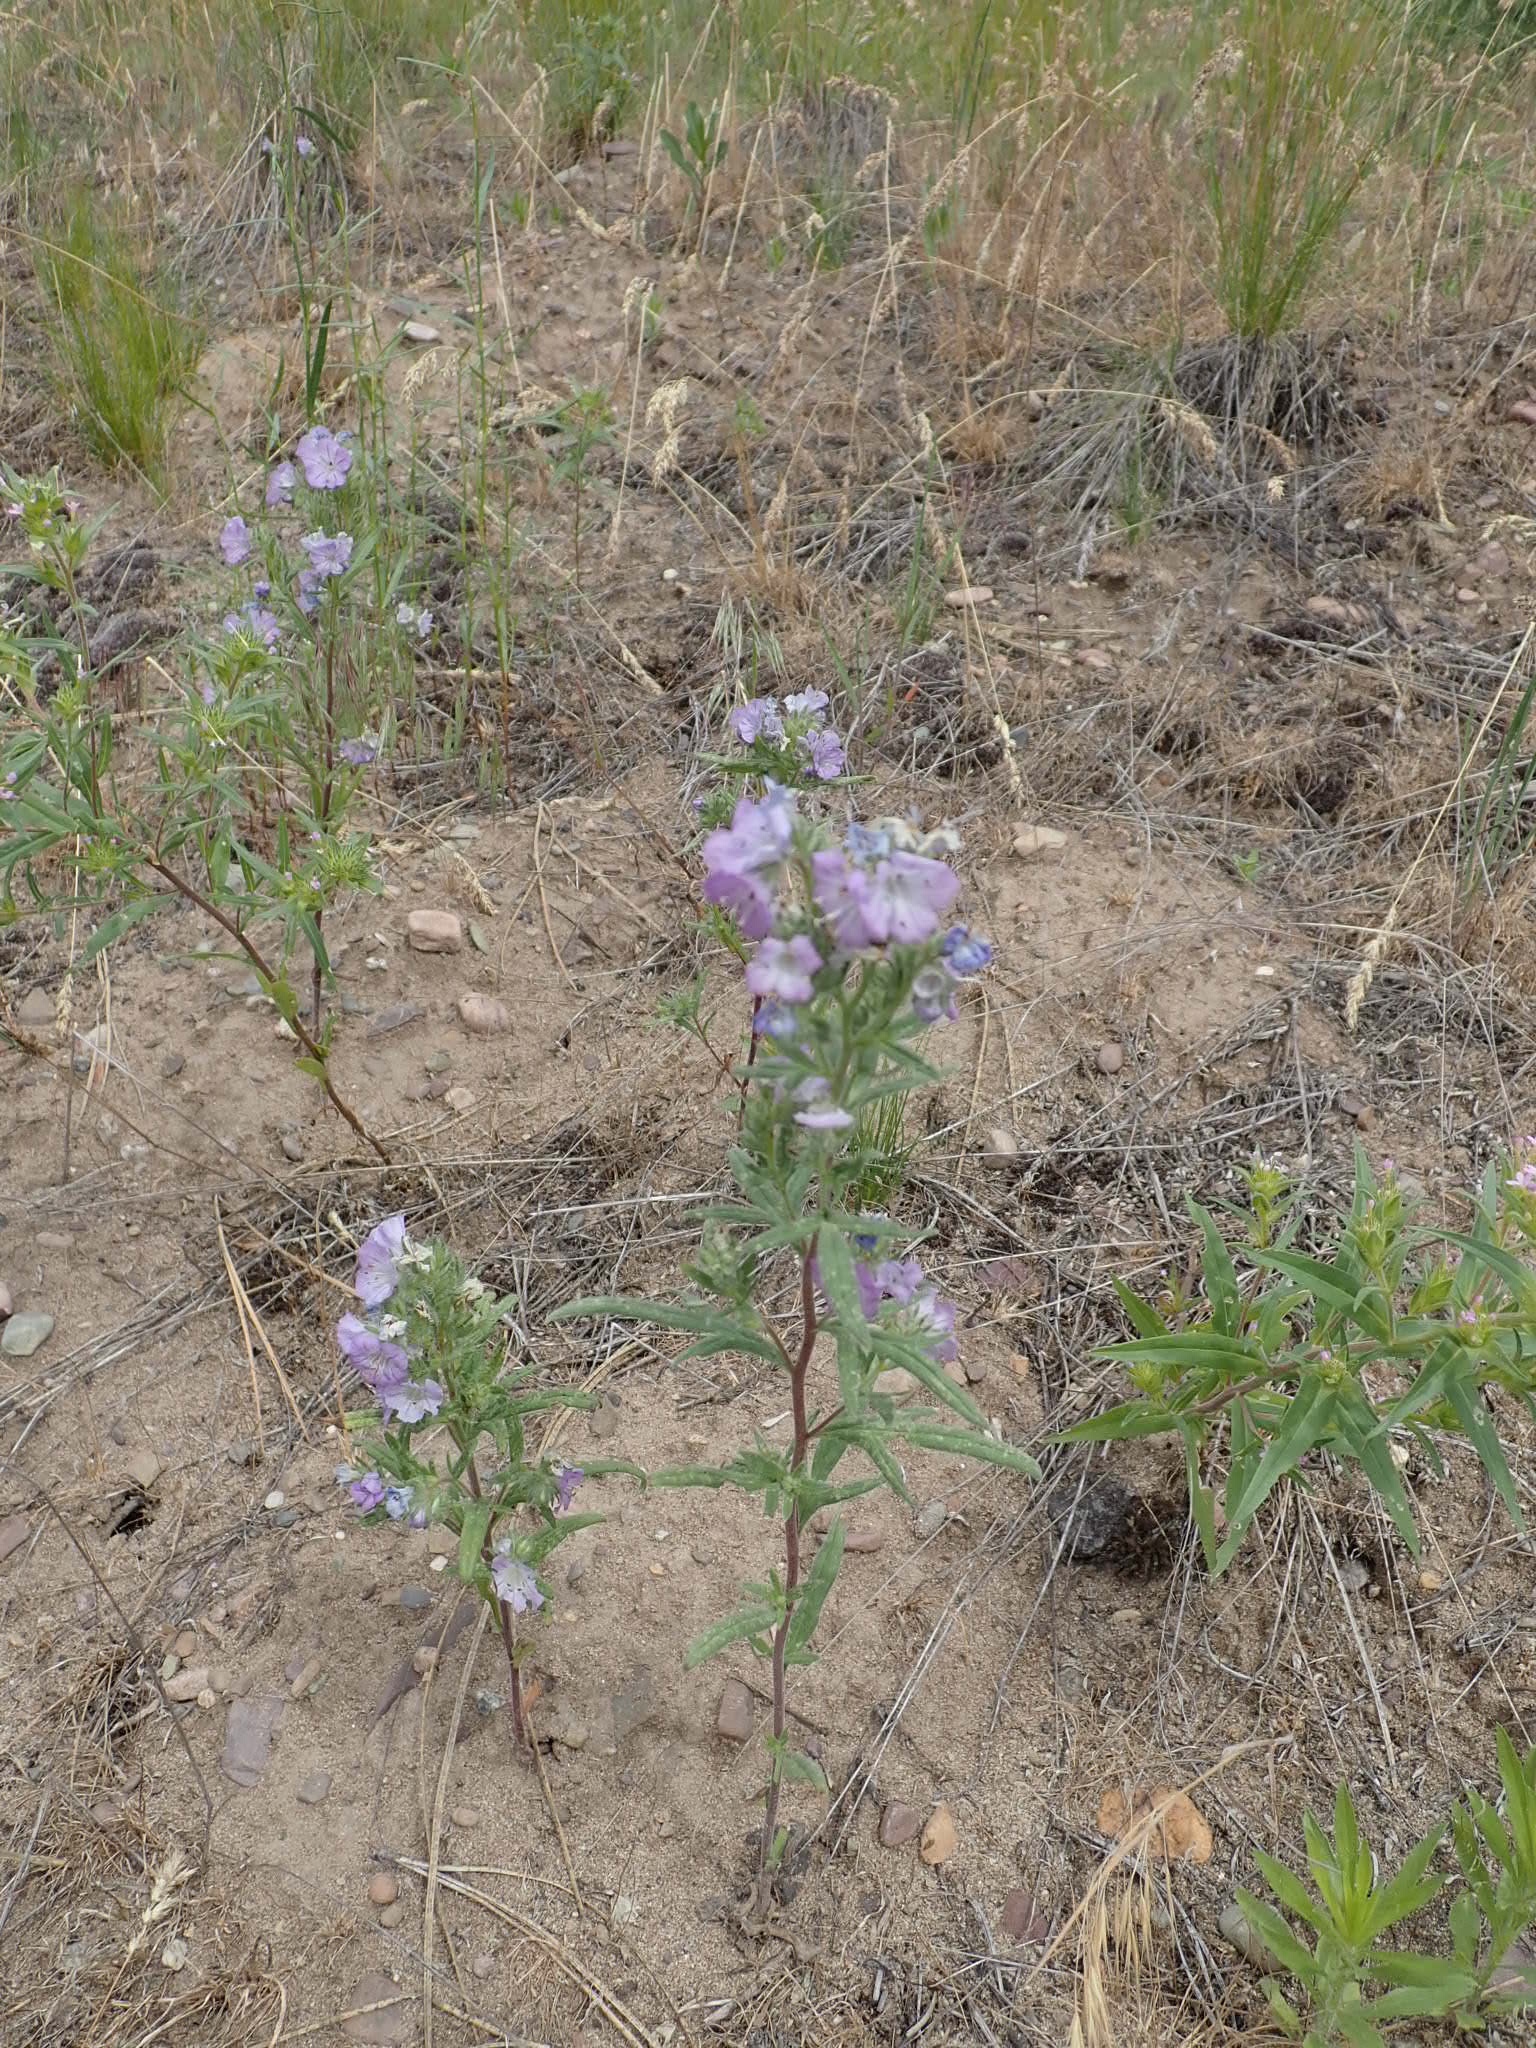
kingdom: Plantae
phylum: Tracheophyta
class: Magnoliopsida
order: Boraginales
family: Hydrophyllaceae
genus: Phacelia
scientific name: Phacelia linearis
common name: Linear-leaved phacelia
